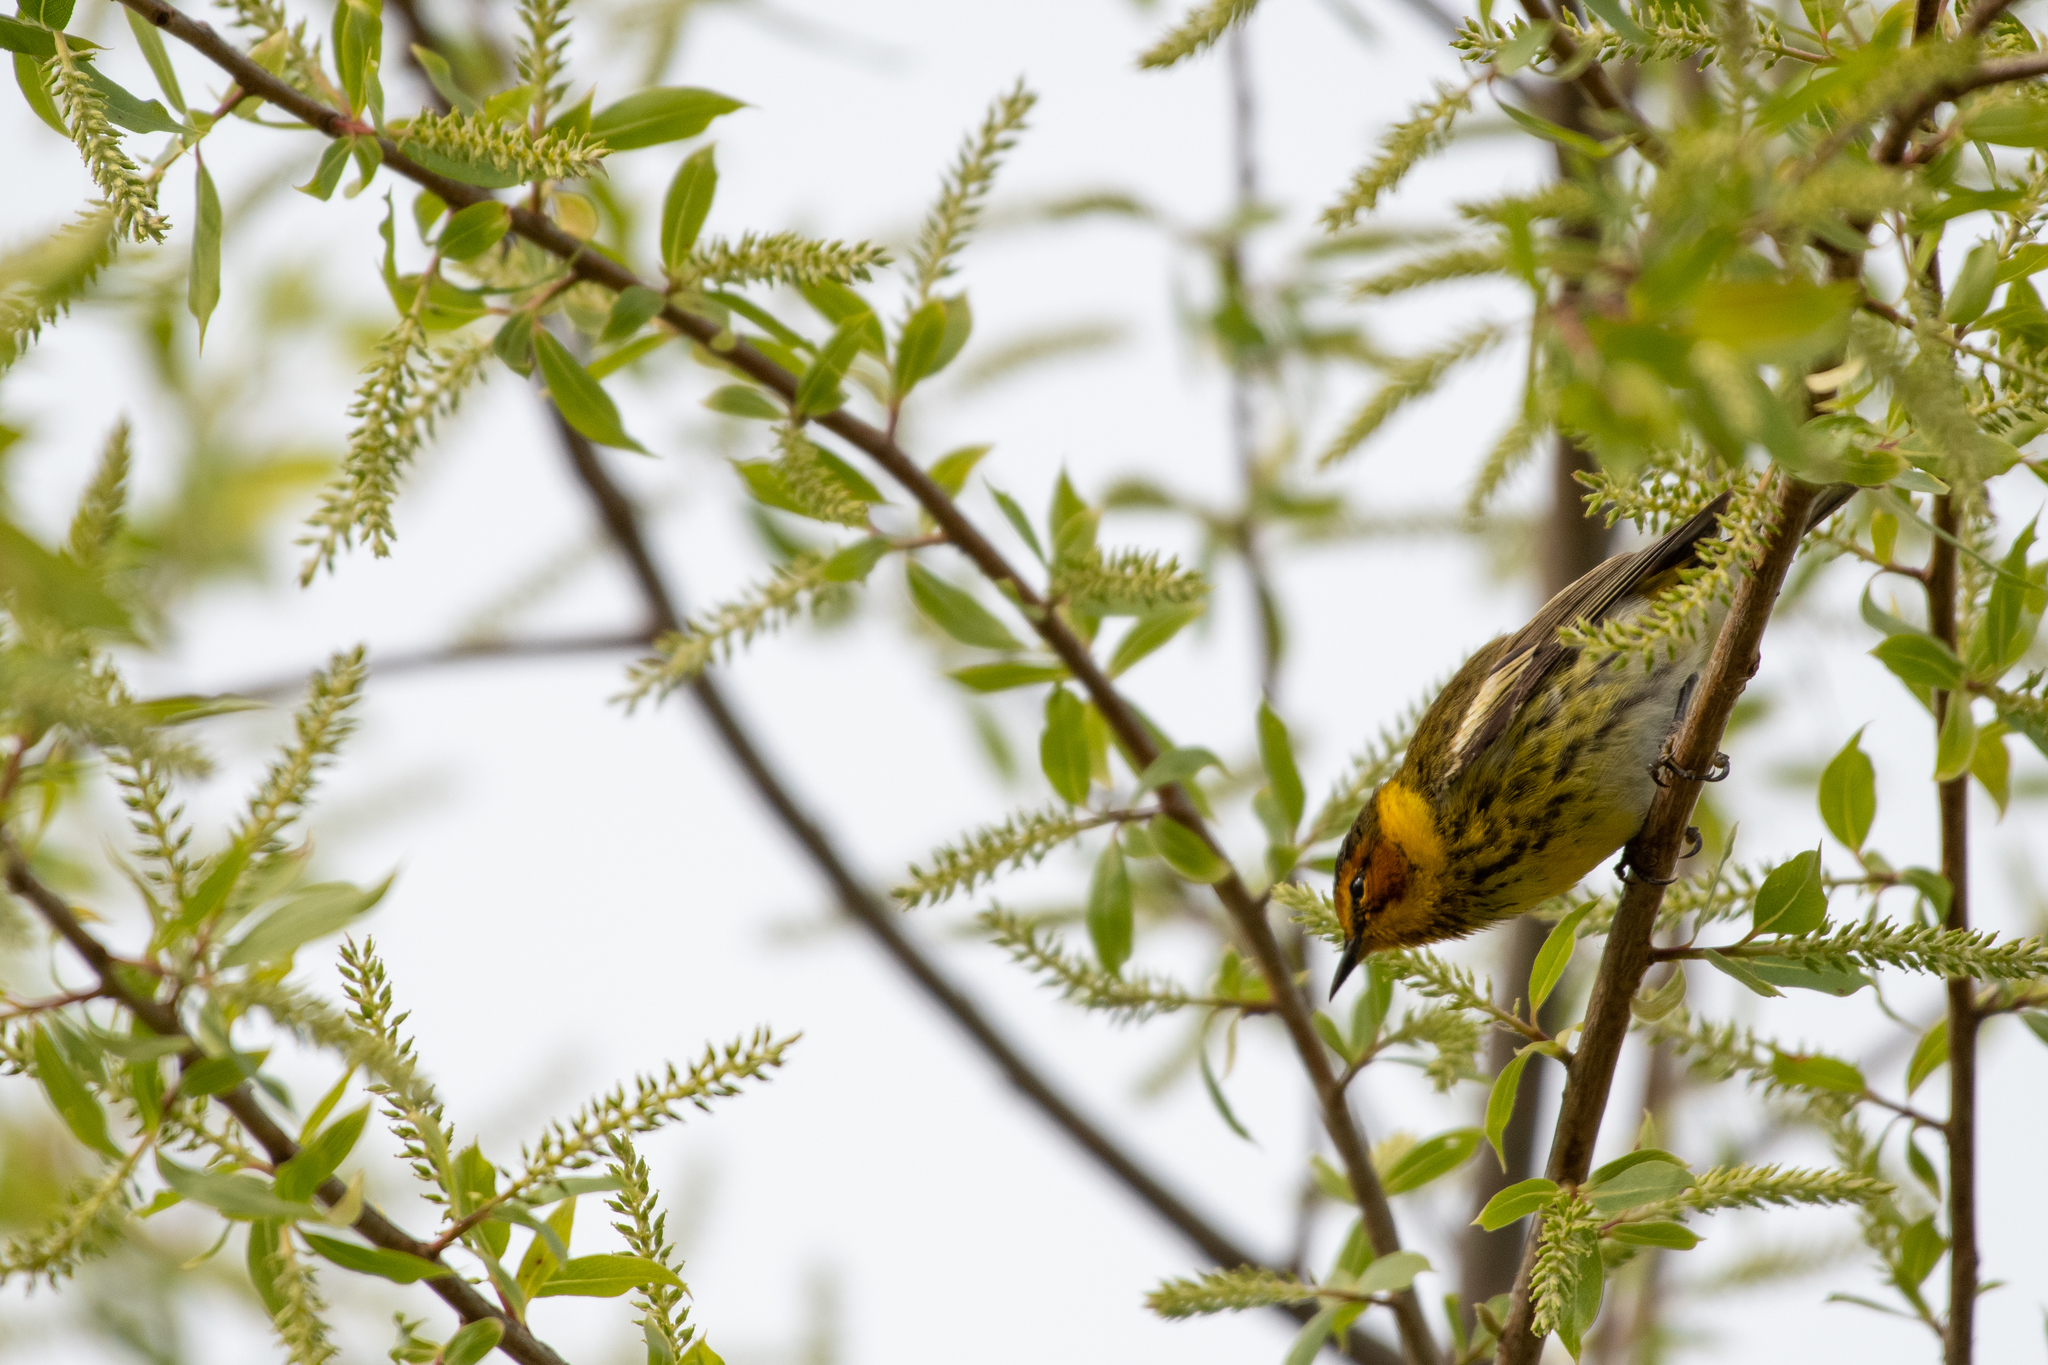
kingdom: Animalia
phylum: Chordata
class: Aves
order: Passeriformes
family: Parulidae
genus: Setophaga
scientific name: Setophaga tigrina
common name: Cape may warbler
